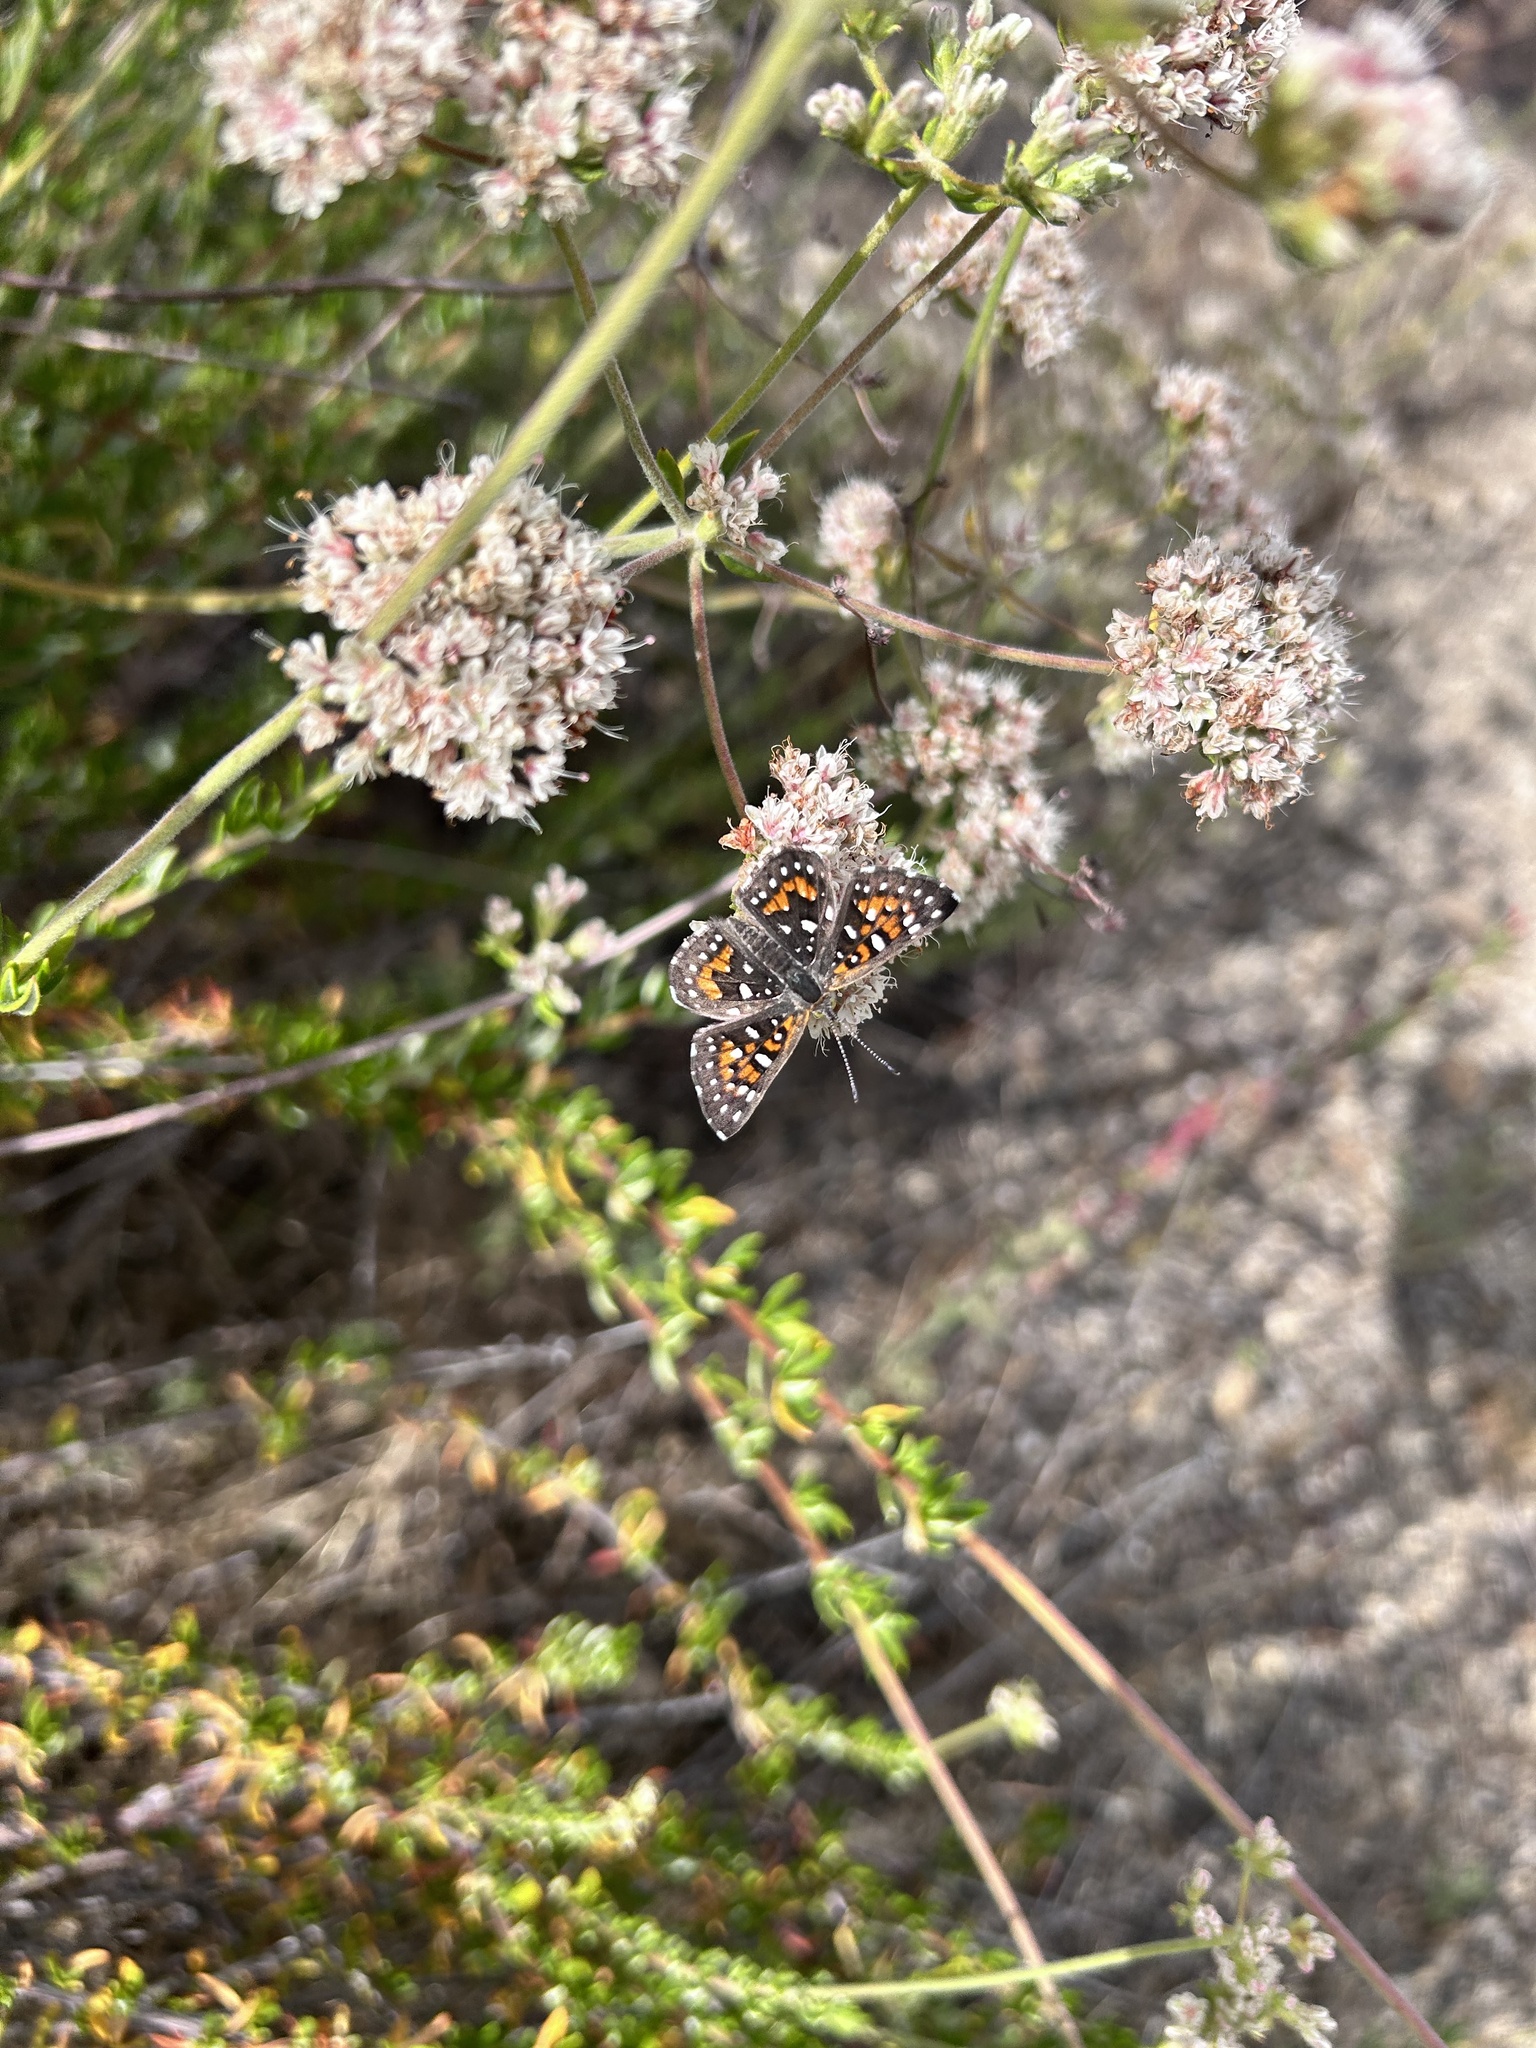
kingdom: Animalia
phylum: Arthropoda
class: Insecta
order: Lepidoptera
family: Riodinidae
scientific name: Riodinidae
